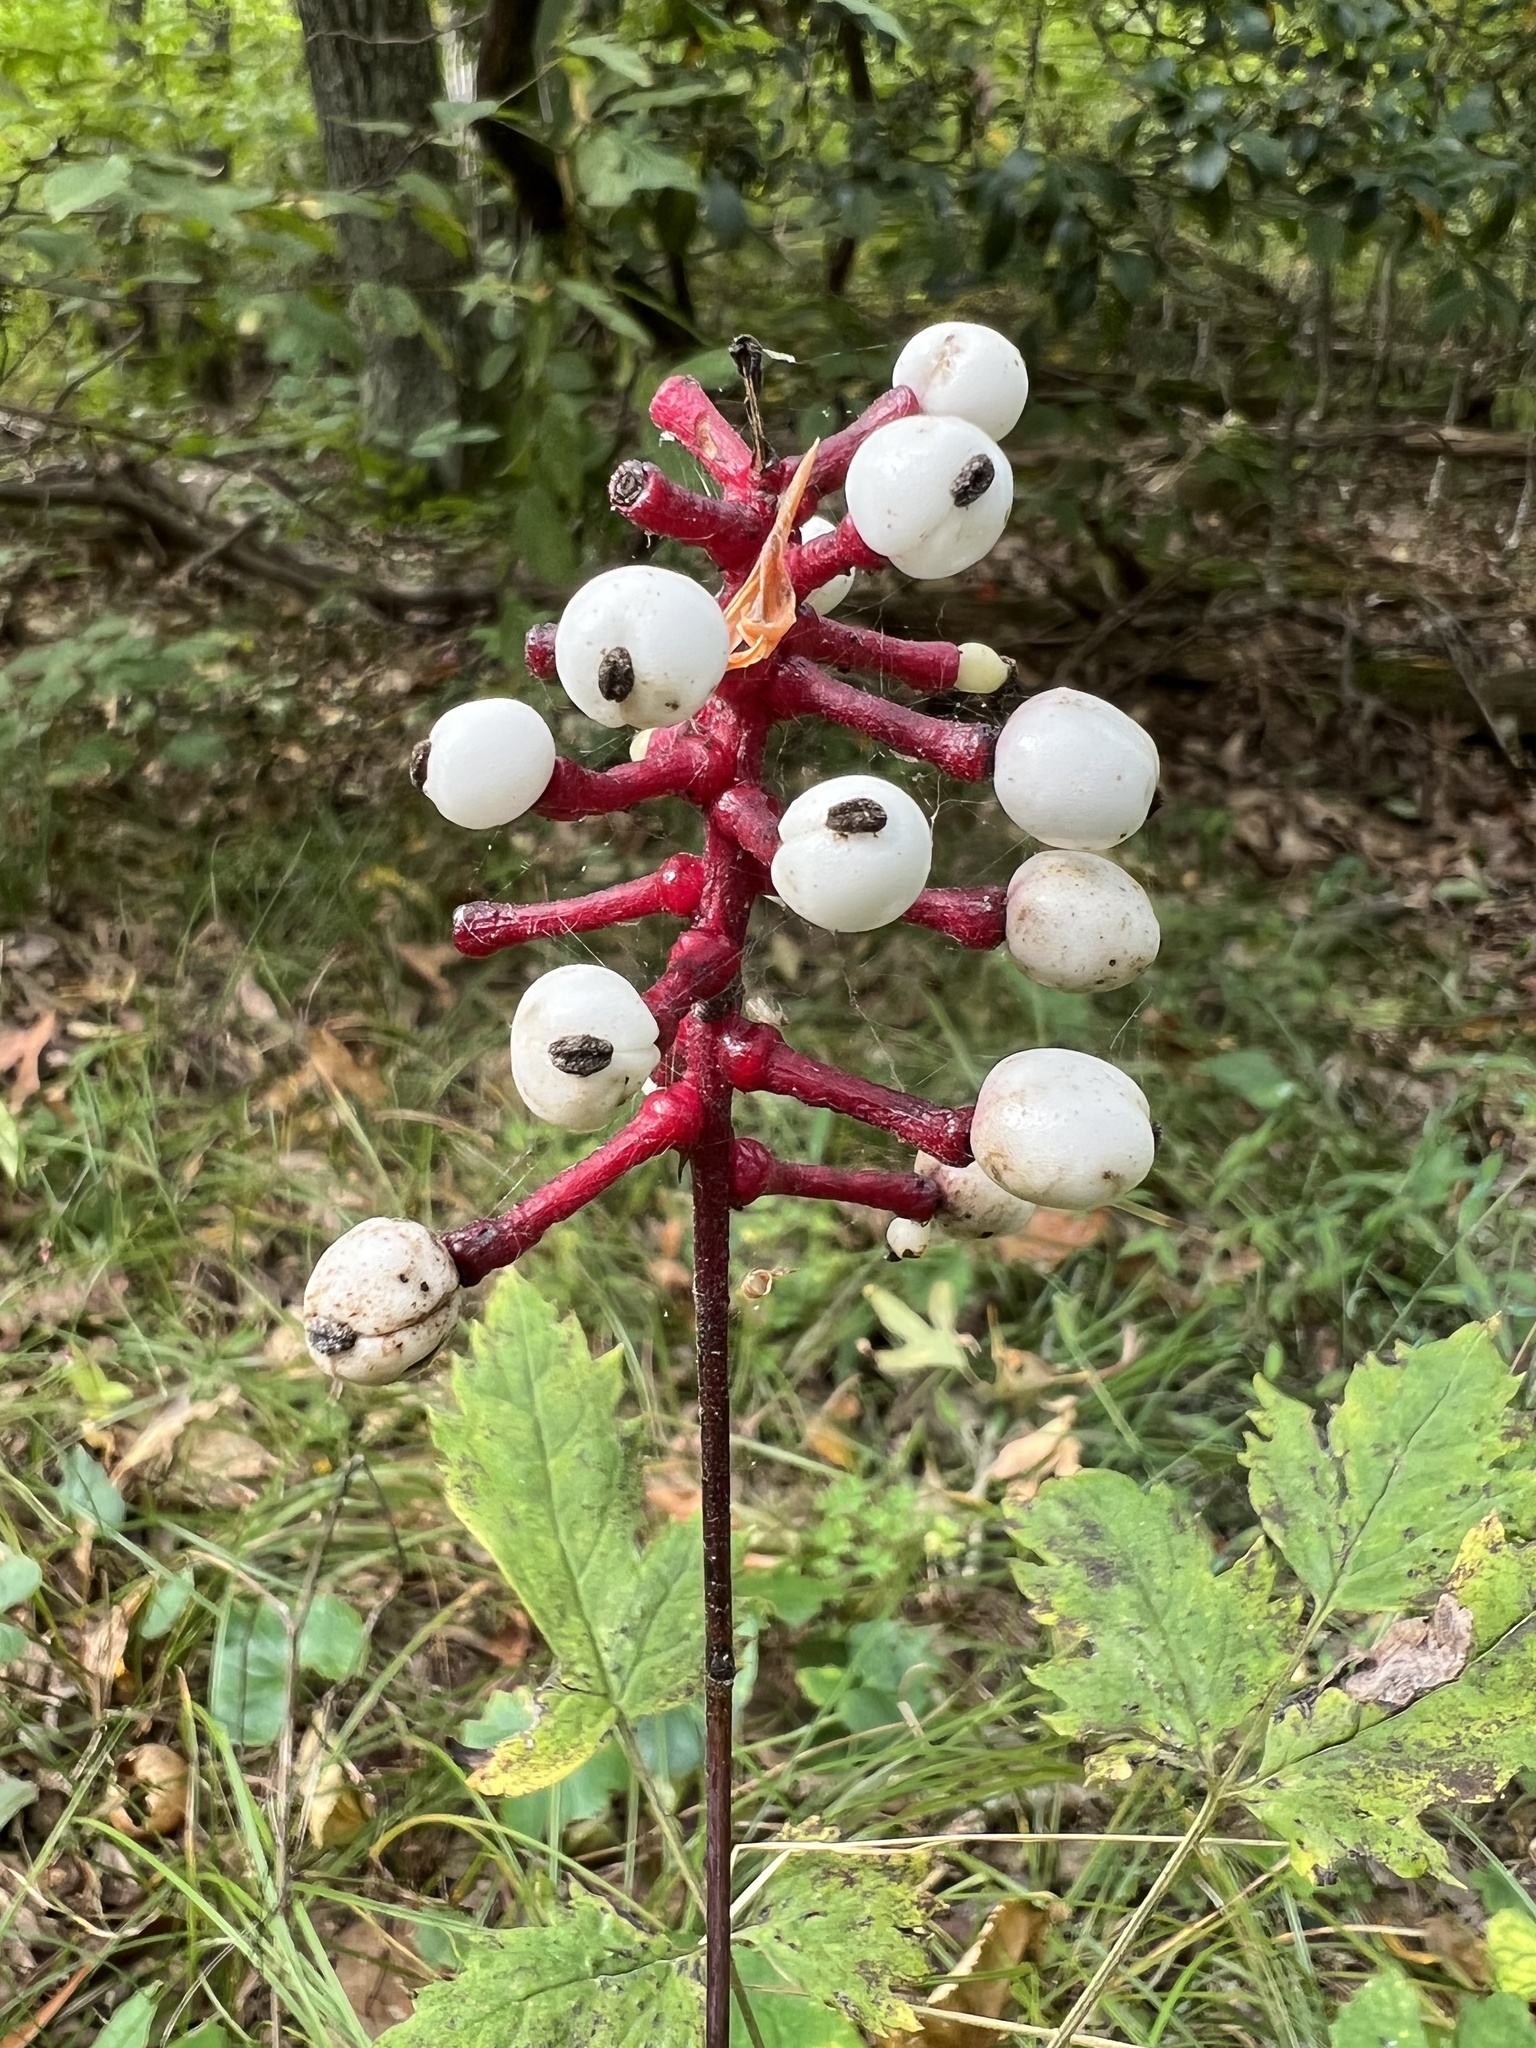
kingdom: Plantae
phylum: Tracheophyta
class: Magnoliopsida
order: Ranunculales
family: Ranunculaceae
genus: Actaea
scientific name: Actaea pachypoda
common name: Doll's-eyes
